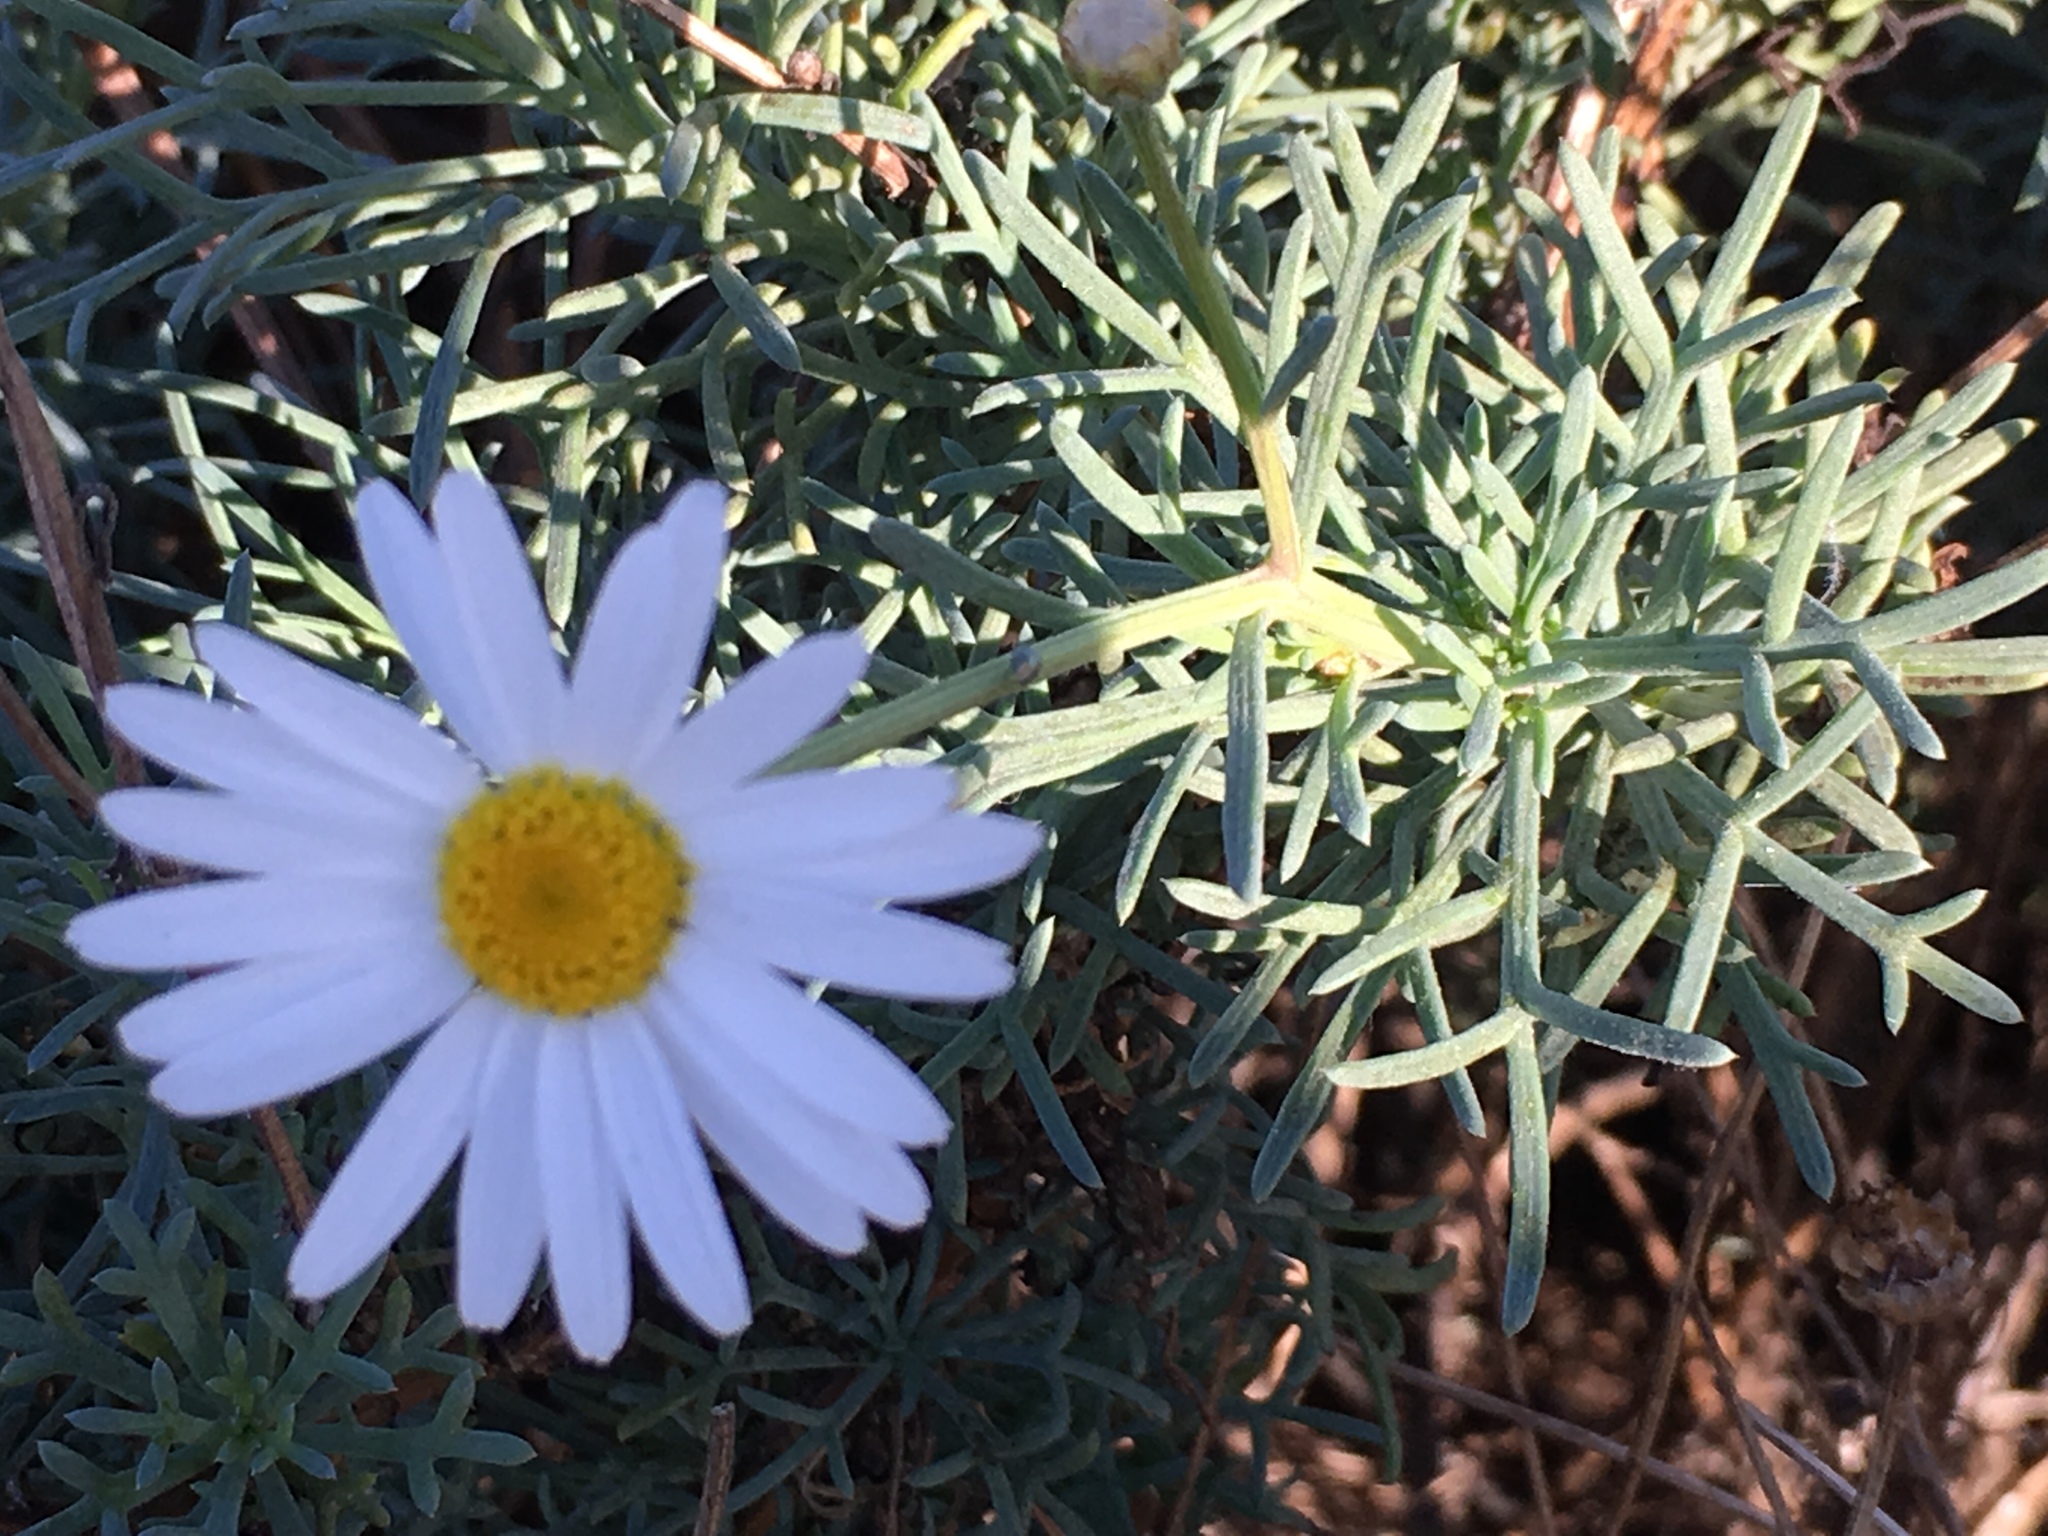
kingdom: Plantae
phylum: Tracheophyta
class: Magnoliopsida
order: Asterales
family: Asteraceae
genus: Argyranthemum
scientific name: Argyranthemum frutescens
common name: Paris daisy
